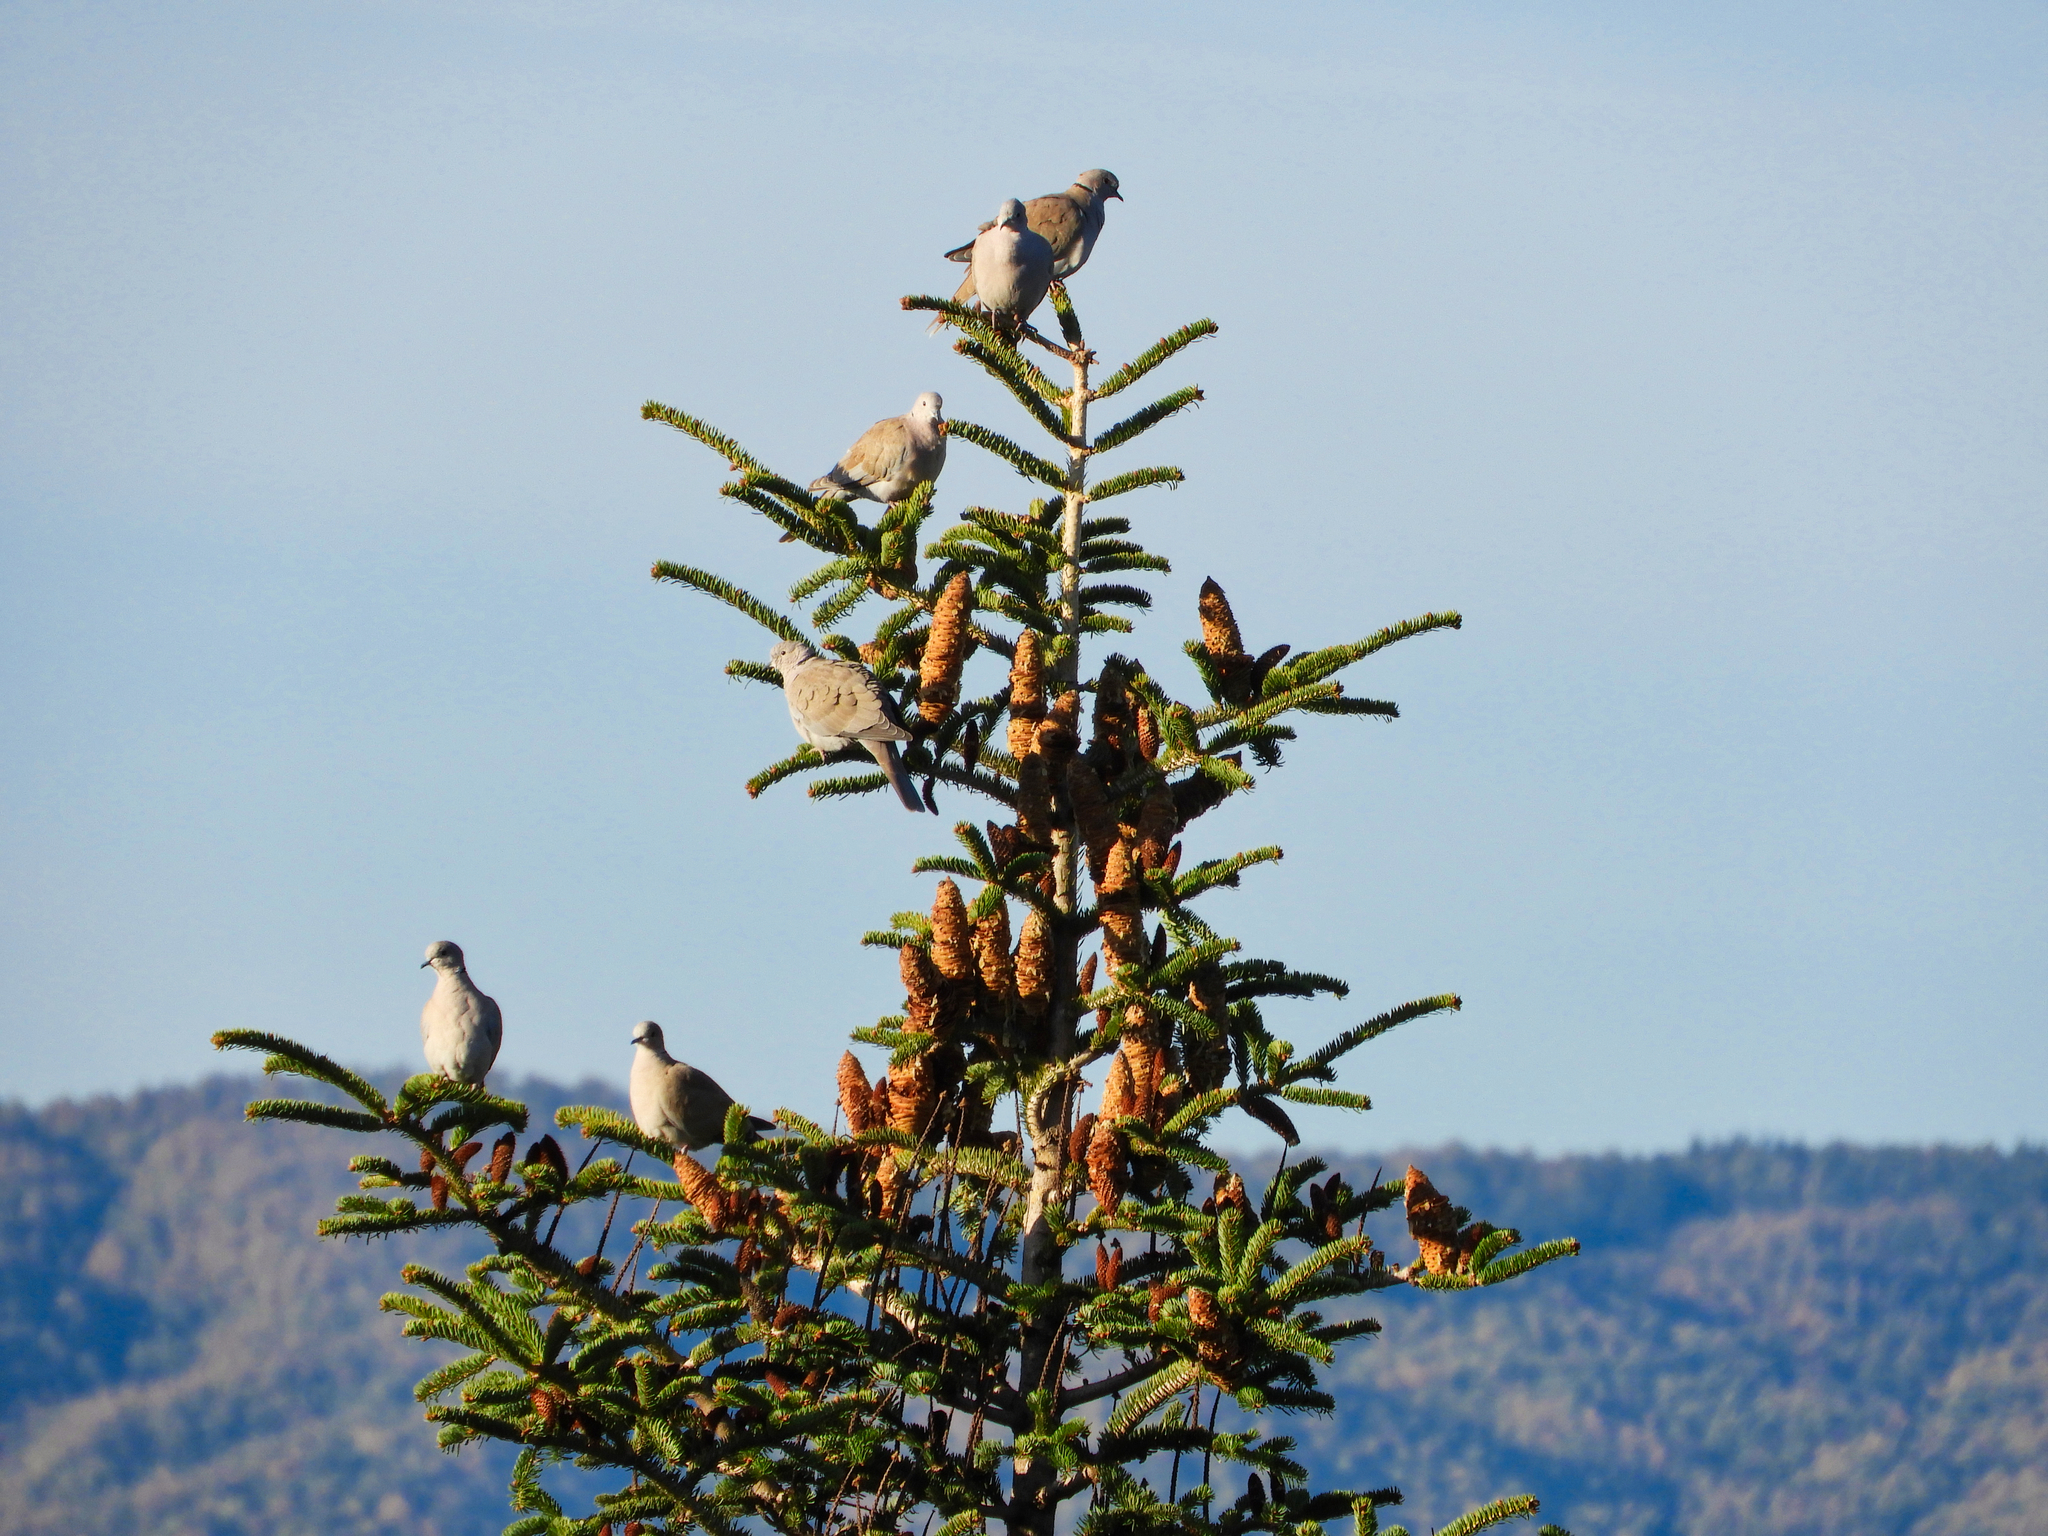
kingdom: Animalia
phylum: Chordata
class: Aves
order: Columbiformes
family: Columbidae
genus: Streptopelia
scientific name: Streptopelia decaocto
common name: Eurasian collared dove
